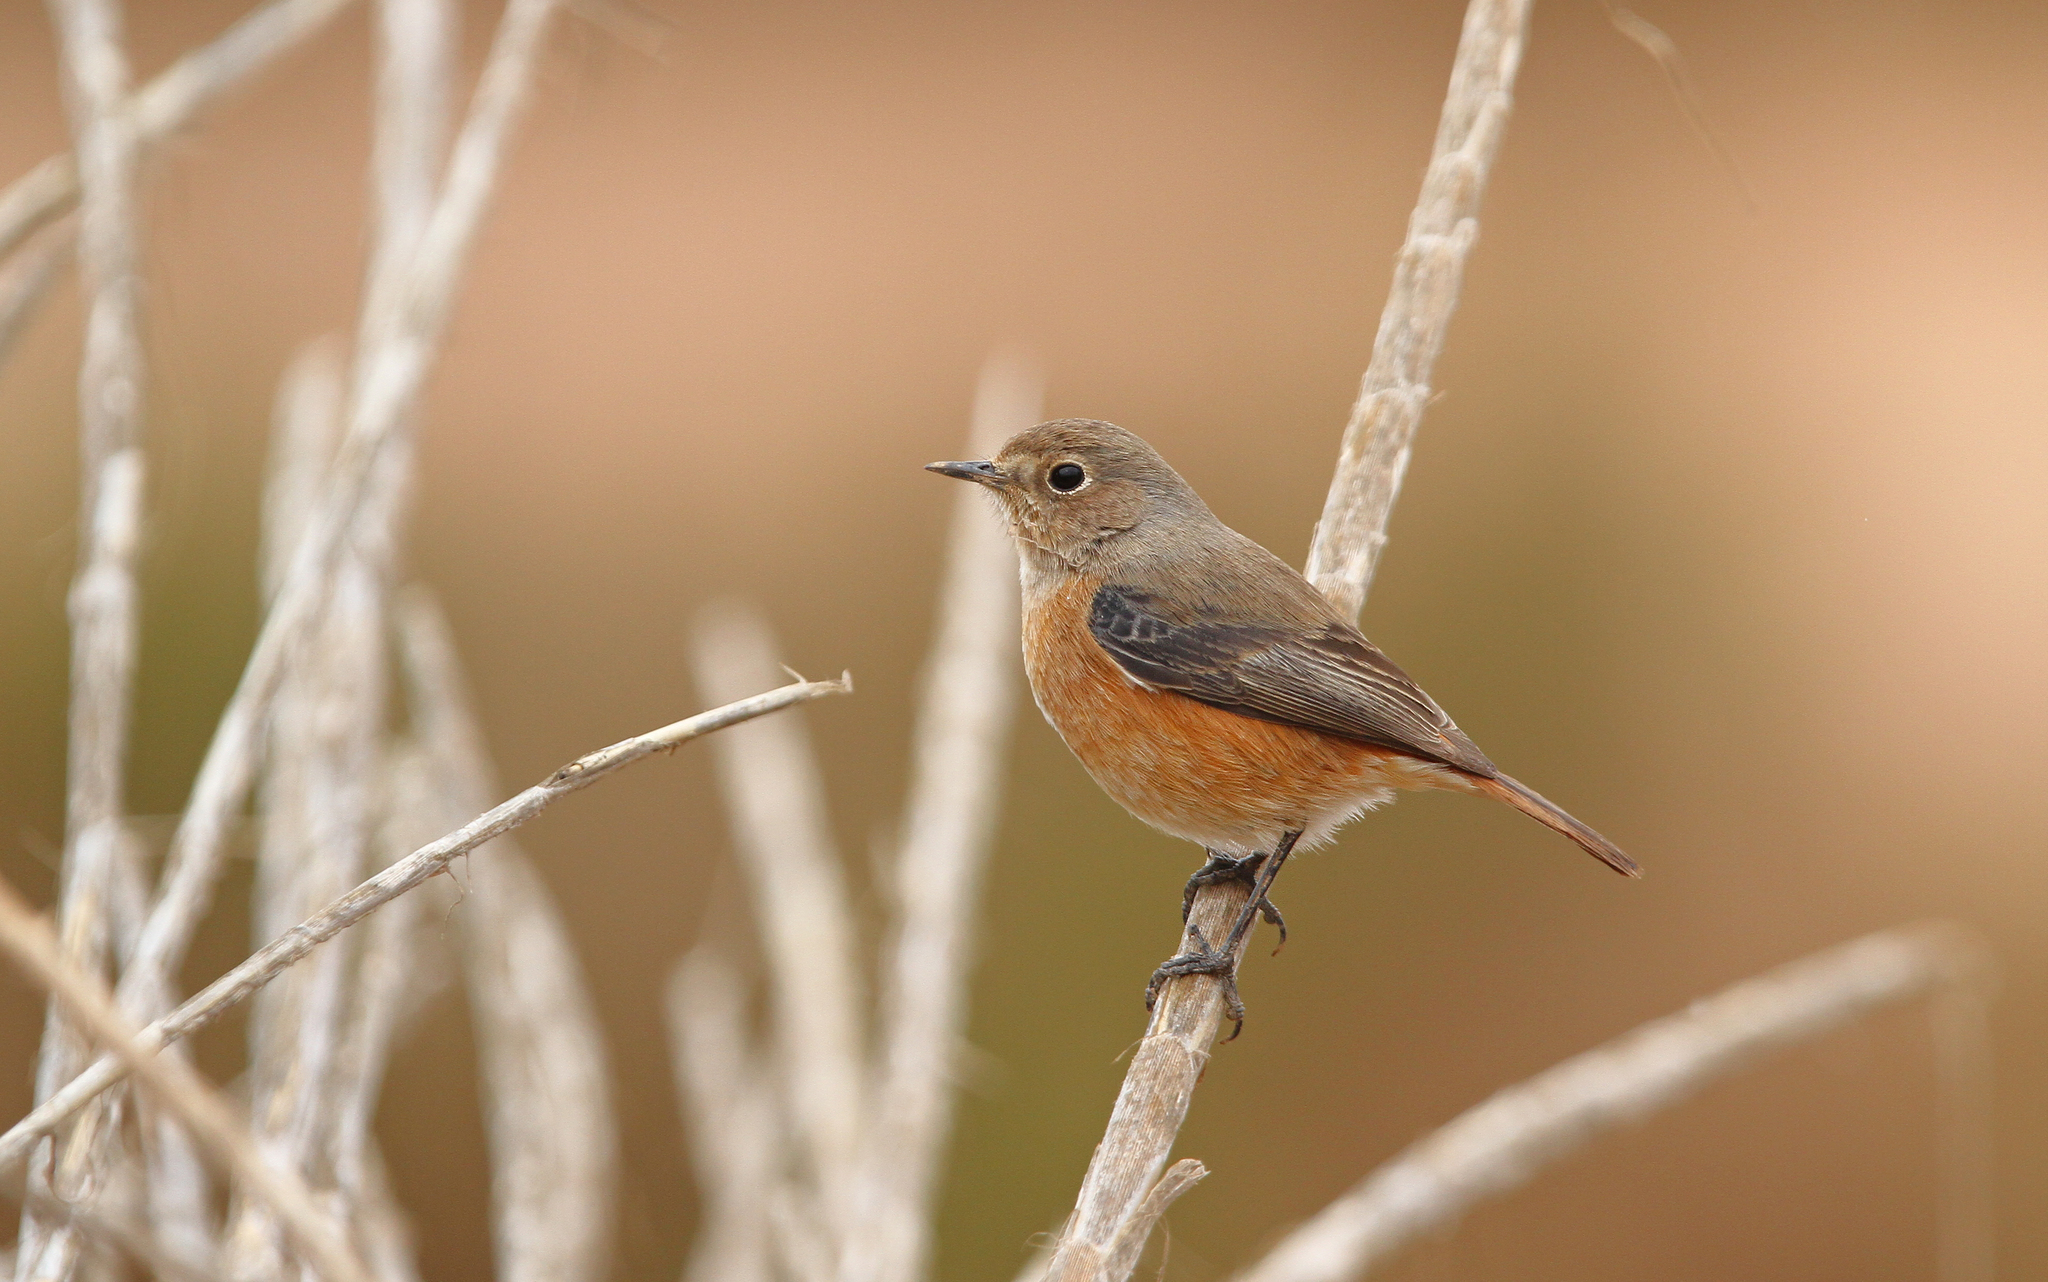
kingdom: Animalia
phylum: Chordata
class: Aves
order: Passeriformes
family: Muscicapidae
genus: Phoenicurus
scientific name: Phoenicurus moussieri
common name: Moussier's redstart
